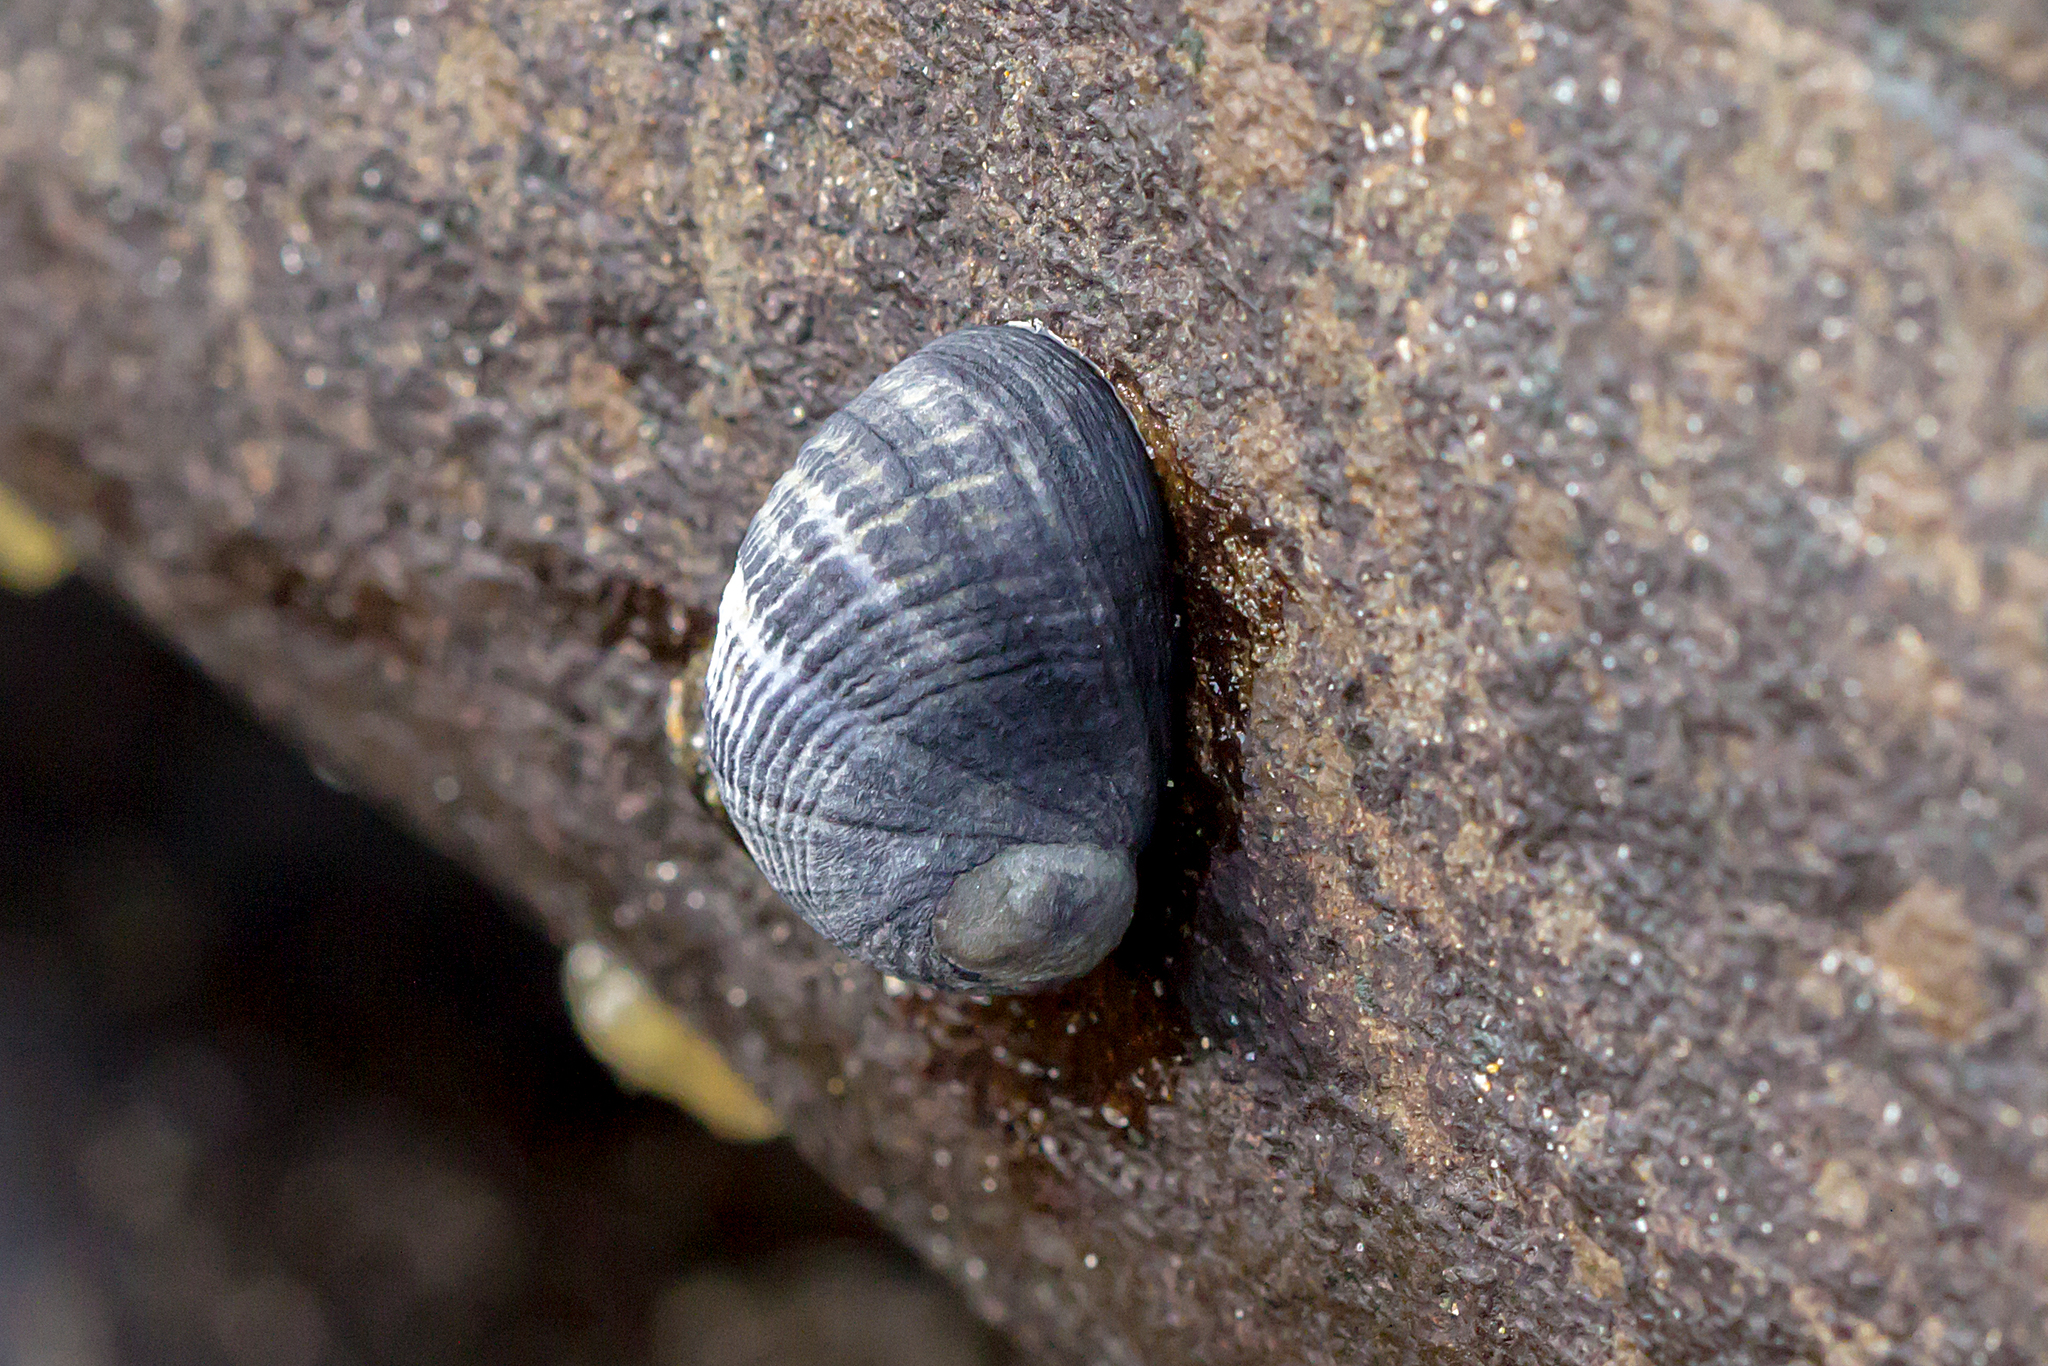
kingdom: Animalia
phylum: Mollusca
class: Gastropoda
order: Cycloneritida
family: Neritidae
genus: Nerita
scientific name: Nerita atramentosa
